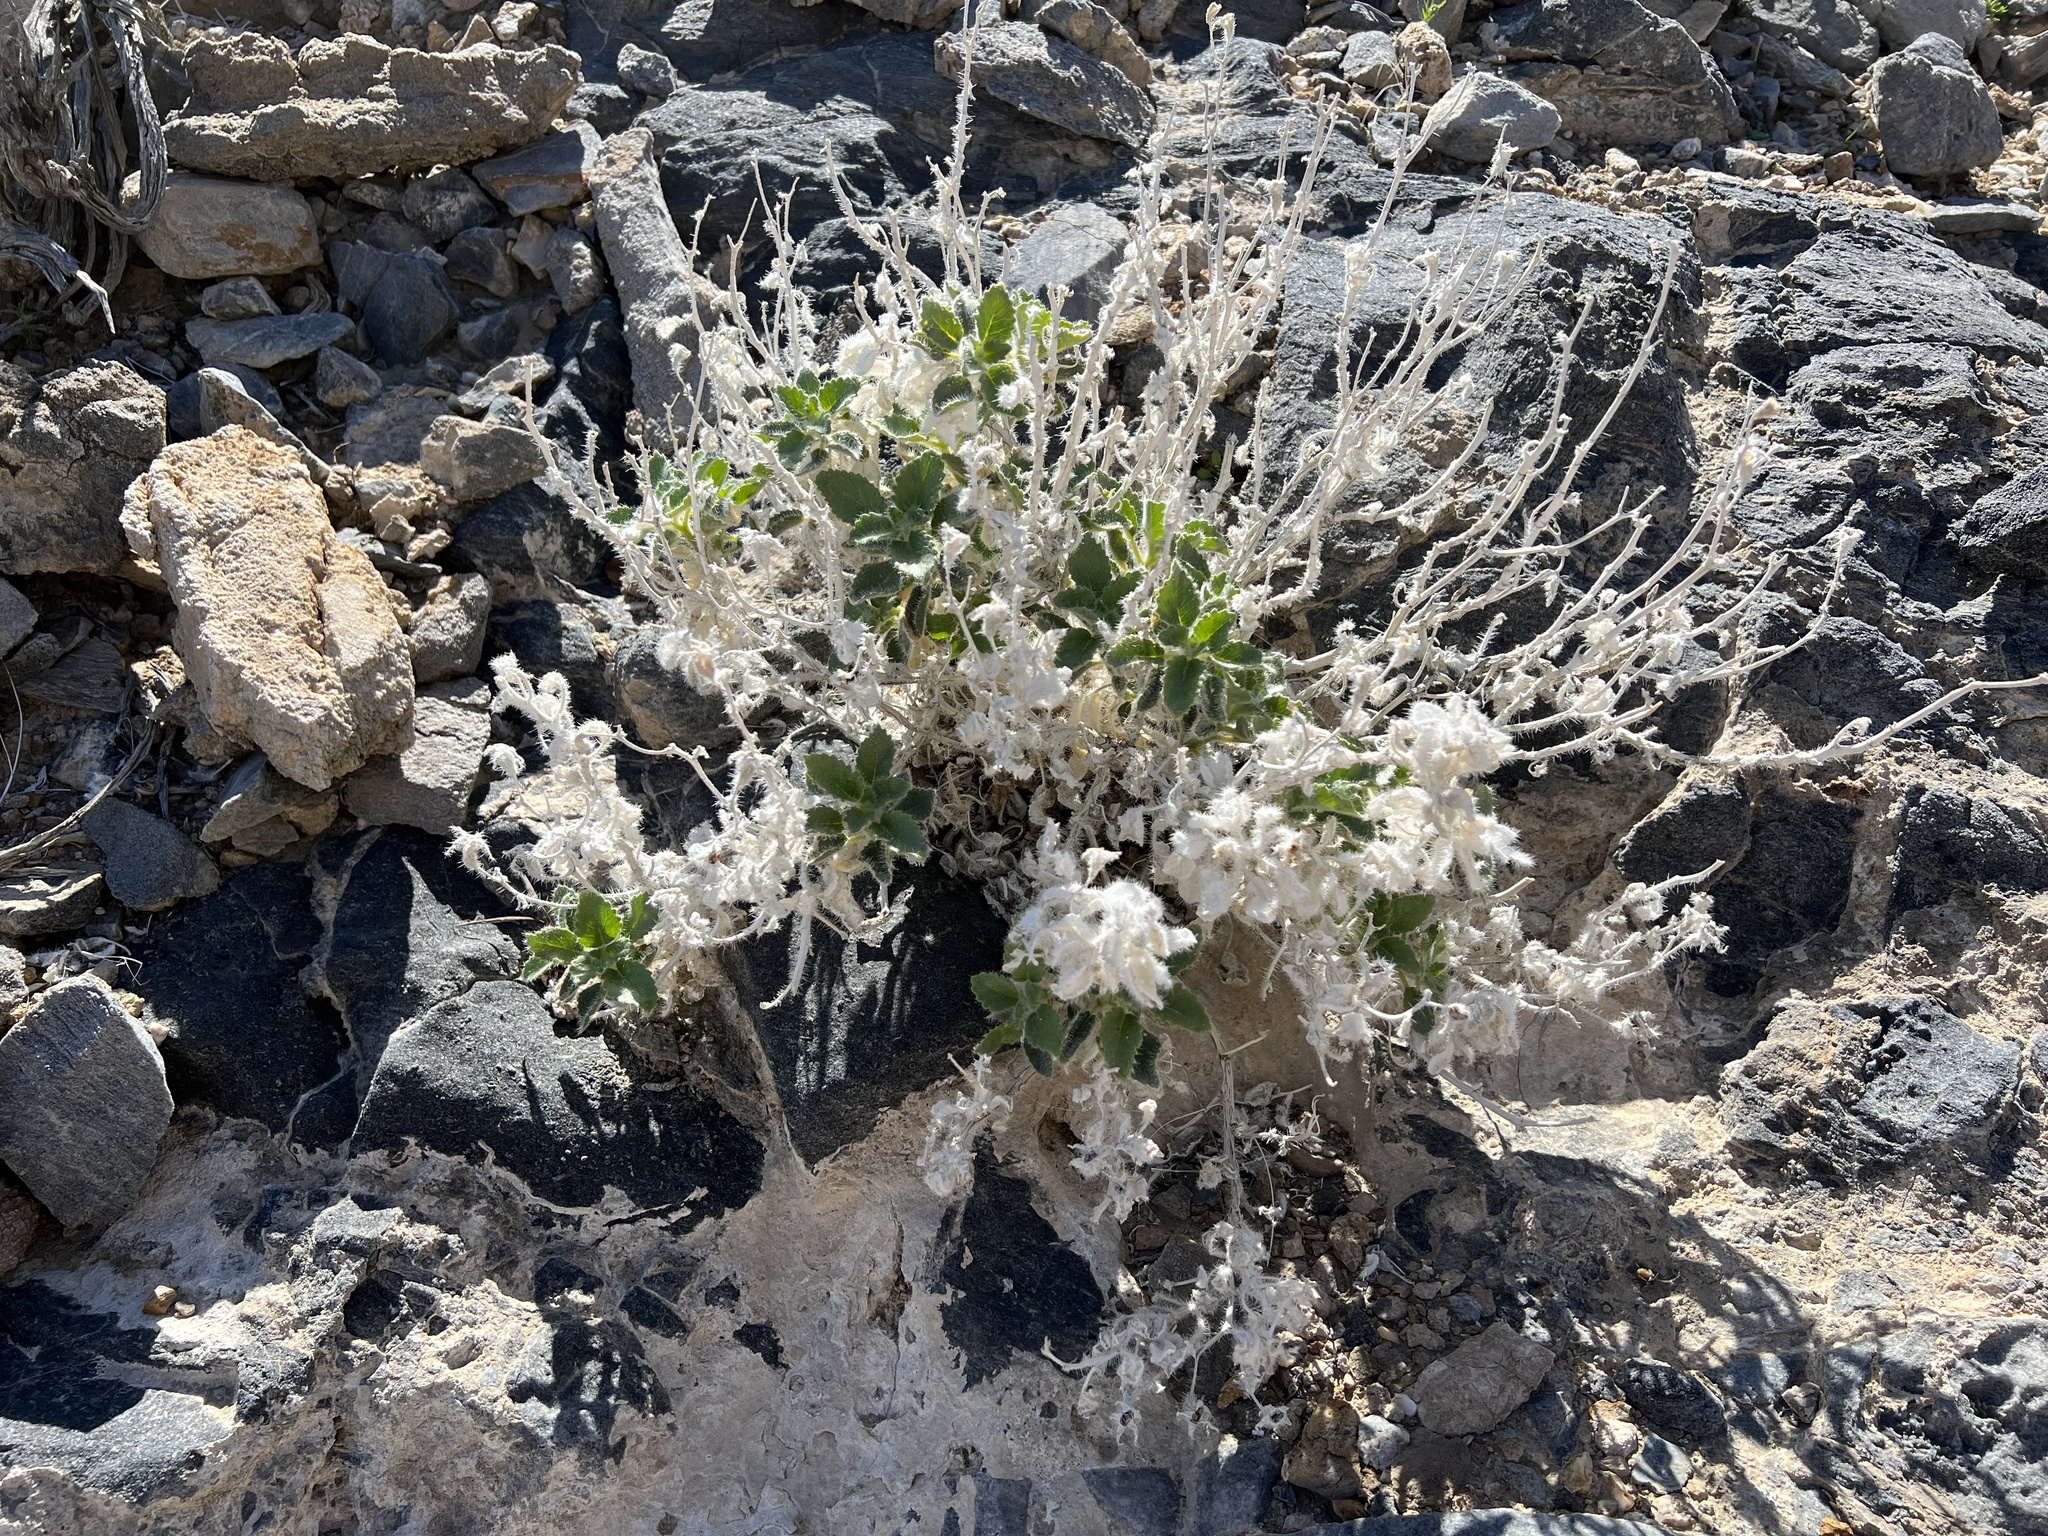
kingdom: Plantae
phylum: Tracheophyta
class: Magnoliopsida
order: Cornales
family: Loasaceae
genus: Eucnide
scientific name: Eucnide urens
